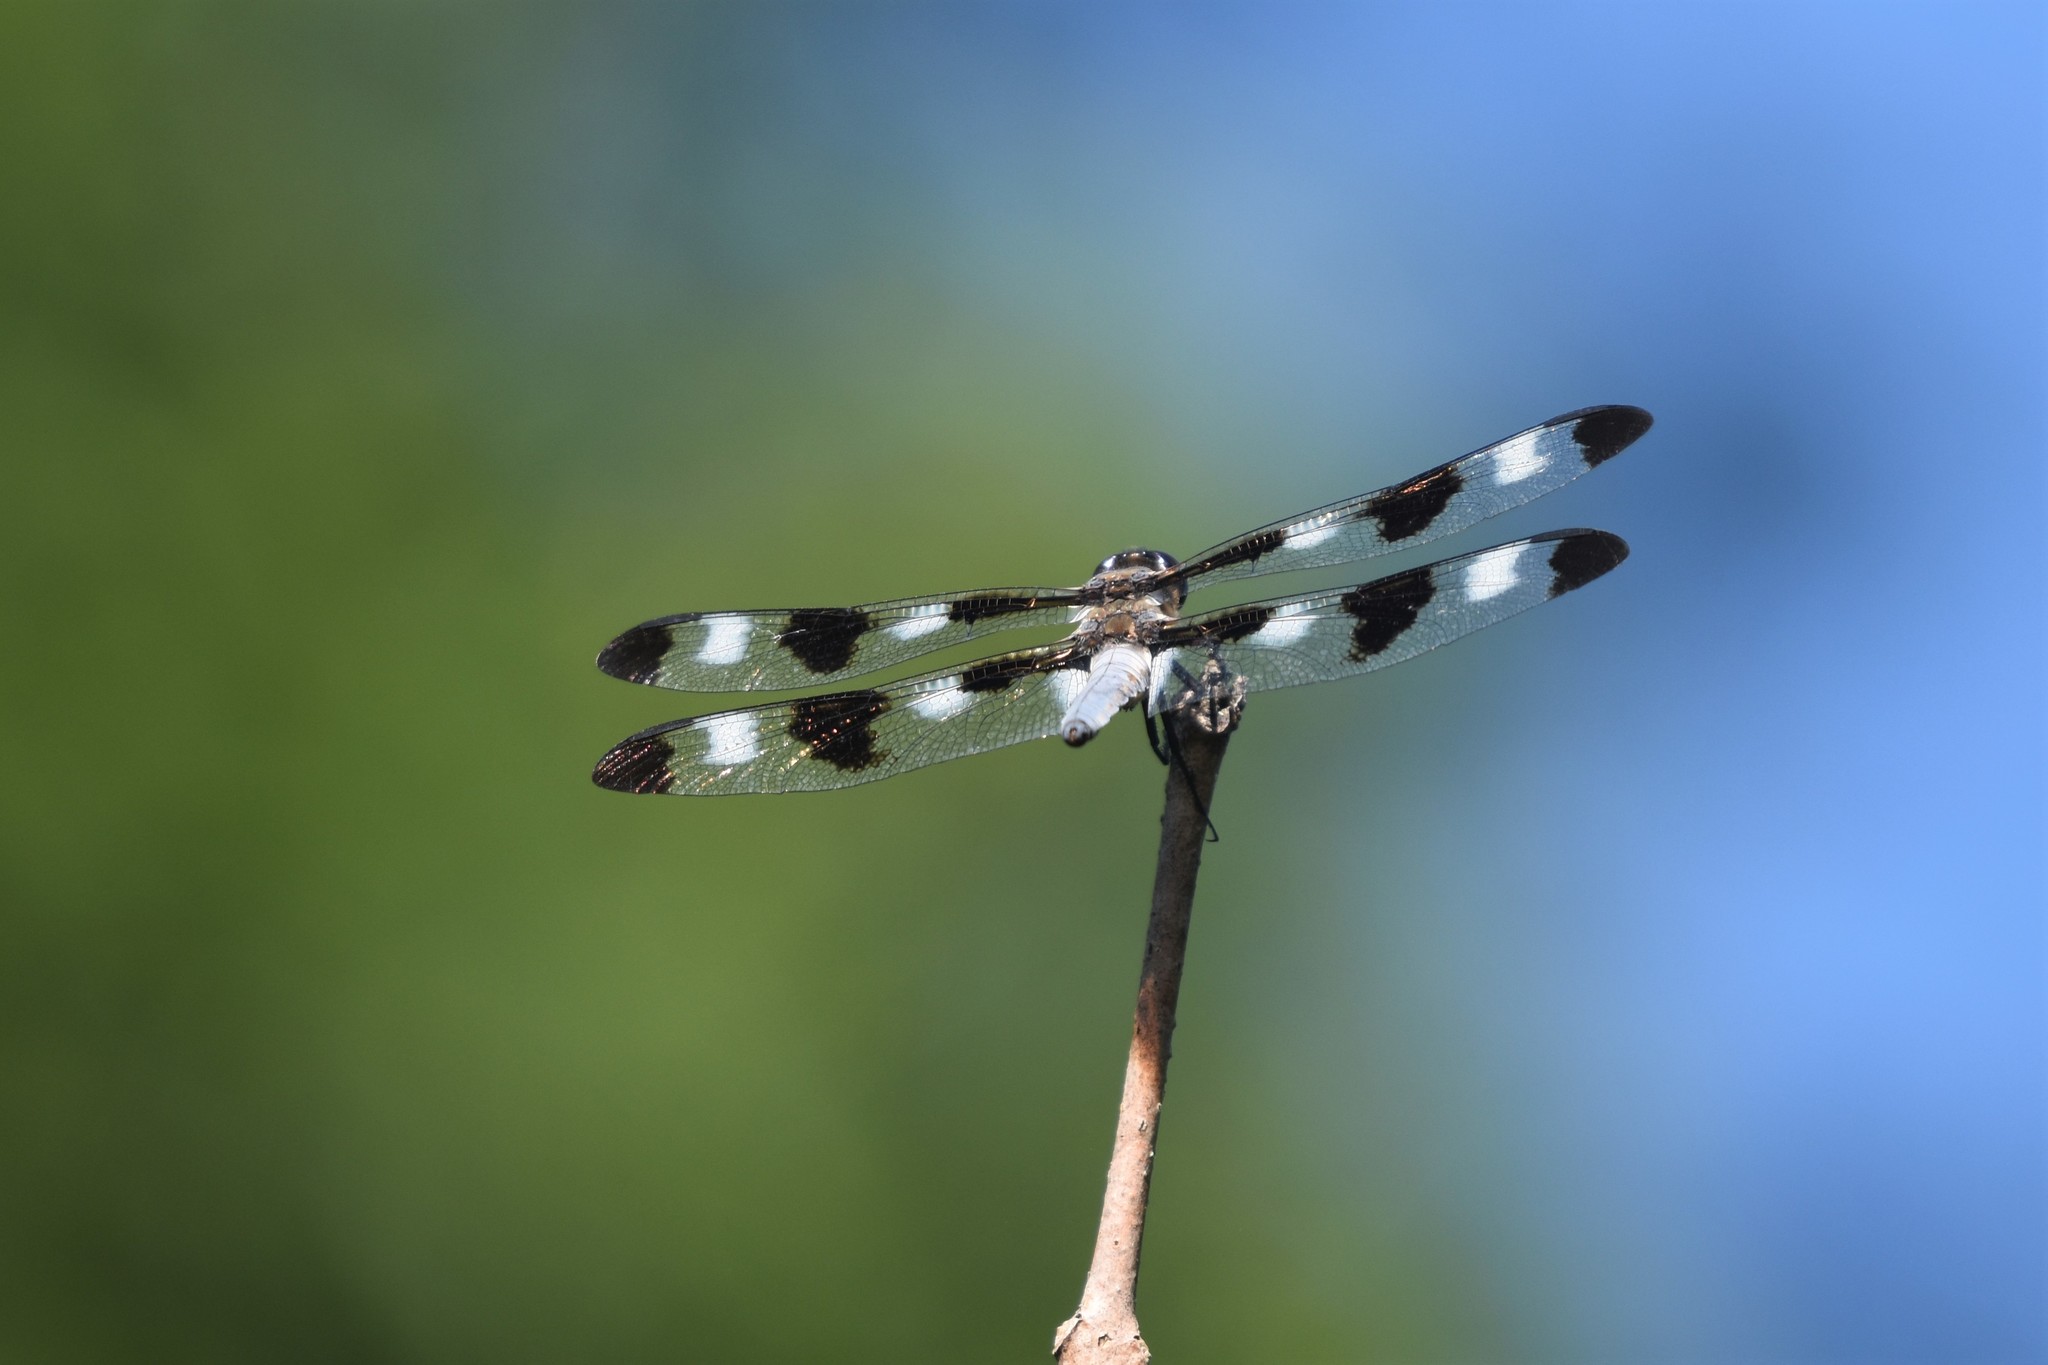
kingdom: Animalia
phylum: Arthropoda
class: Insecta
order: Odonata
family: Libellulidae
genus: Libellula
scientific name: Libellula pulchella
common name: Twelve-spotted skimmer
